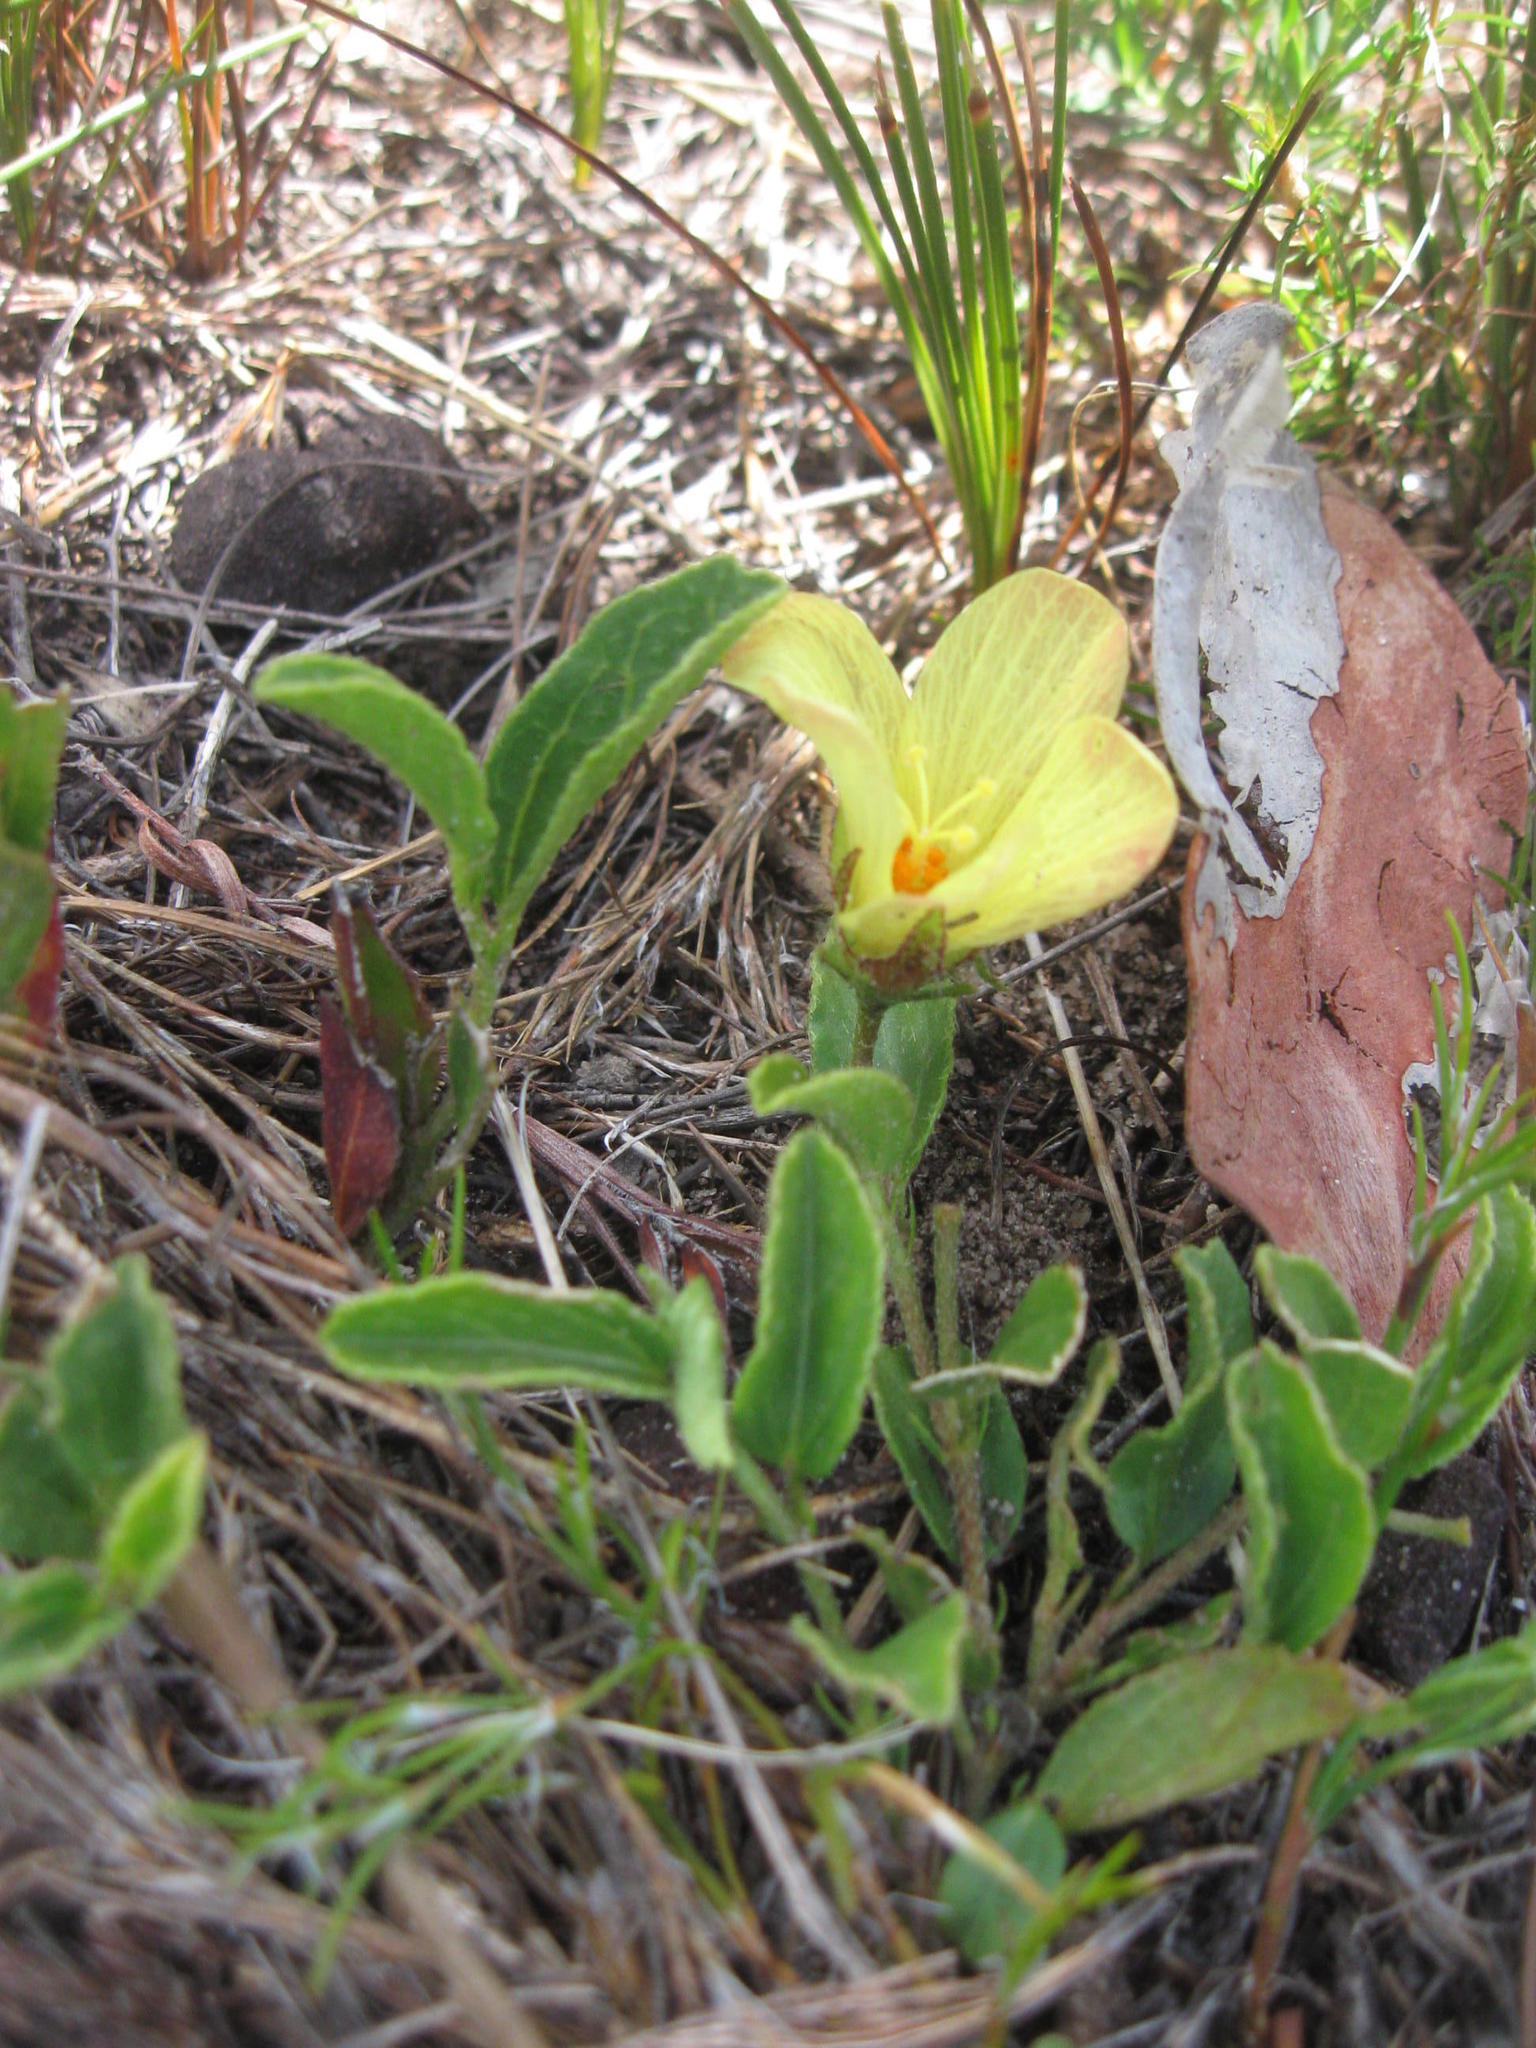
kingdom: Plantae
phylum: Tracheophyta
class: Magnoliopsida
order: Malvales
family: Malvaceae
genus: Hibiscus
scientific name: Hibiscus aethiopicus
